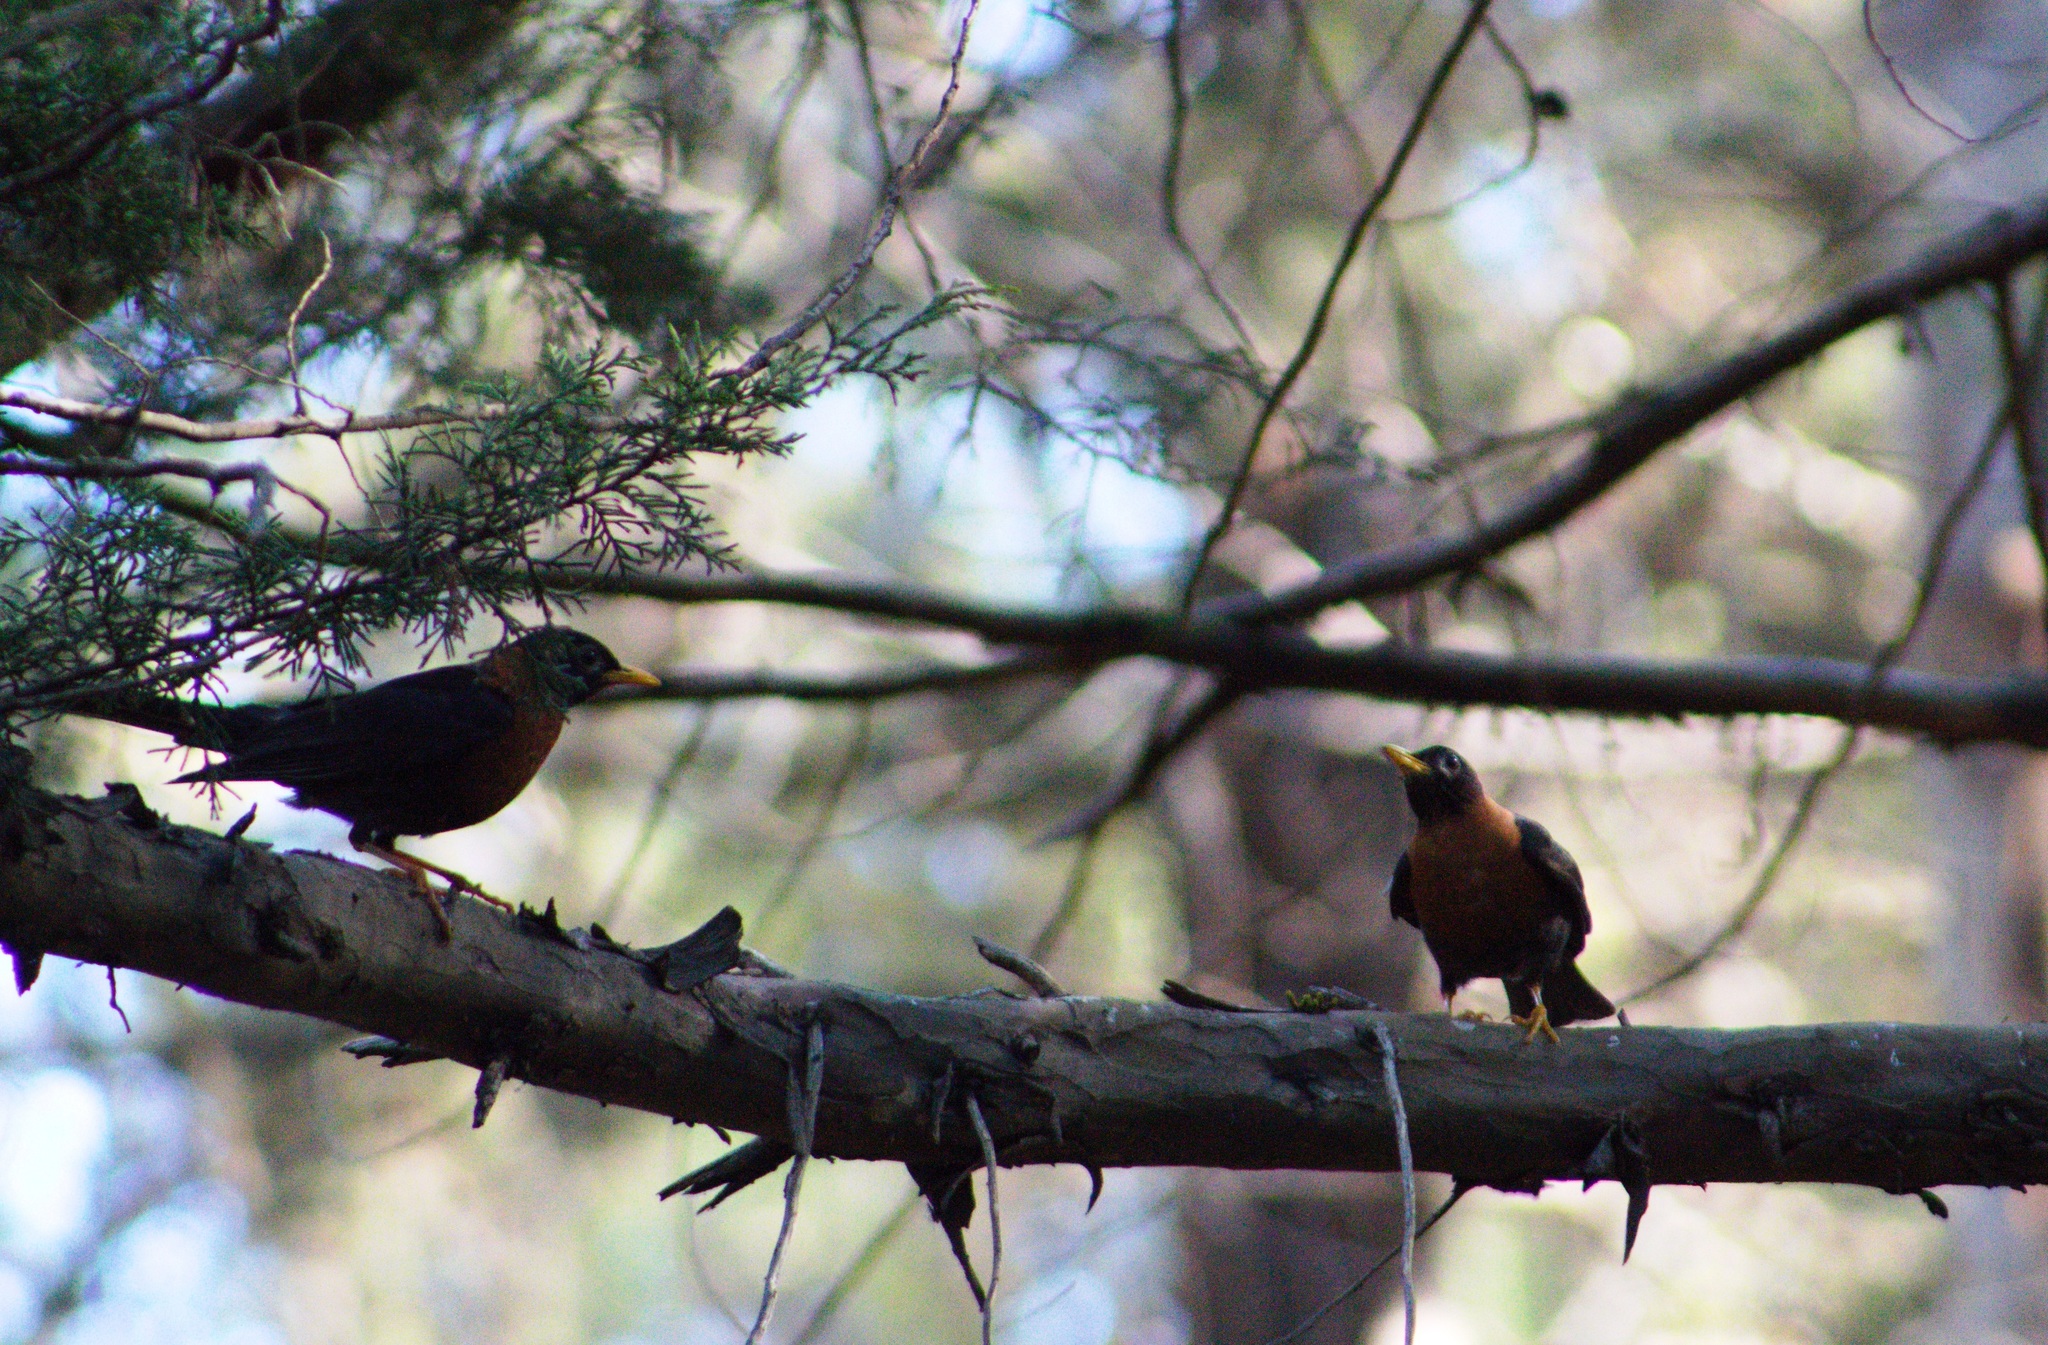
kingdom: Animalia
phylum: Chordata
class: Aves
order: Passeriformes
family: Turdidae
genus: Turdus
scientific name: Turdus rufitorques
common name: Rufous-collared thrush
